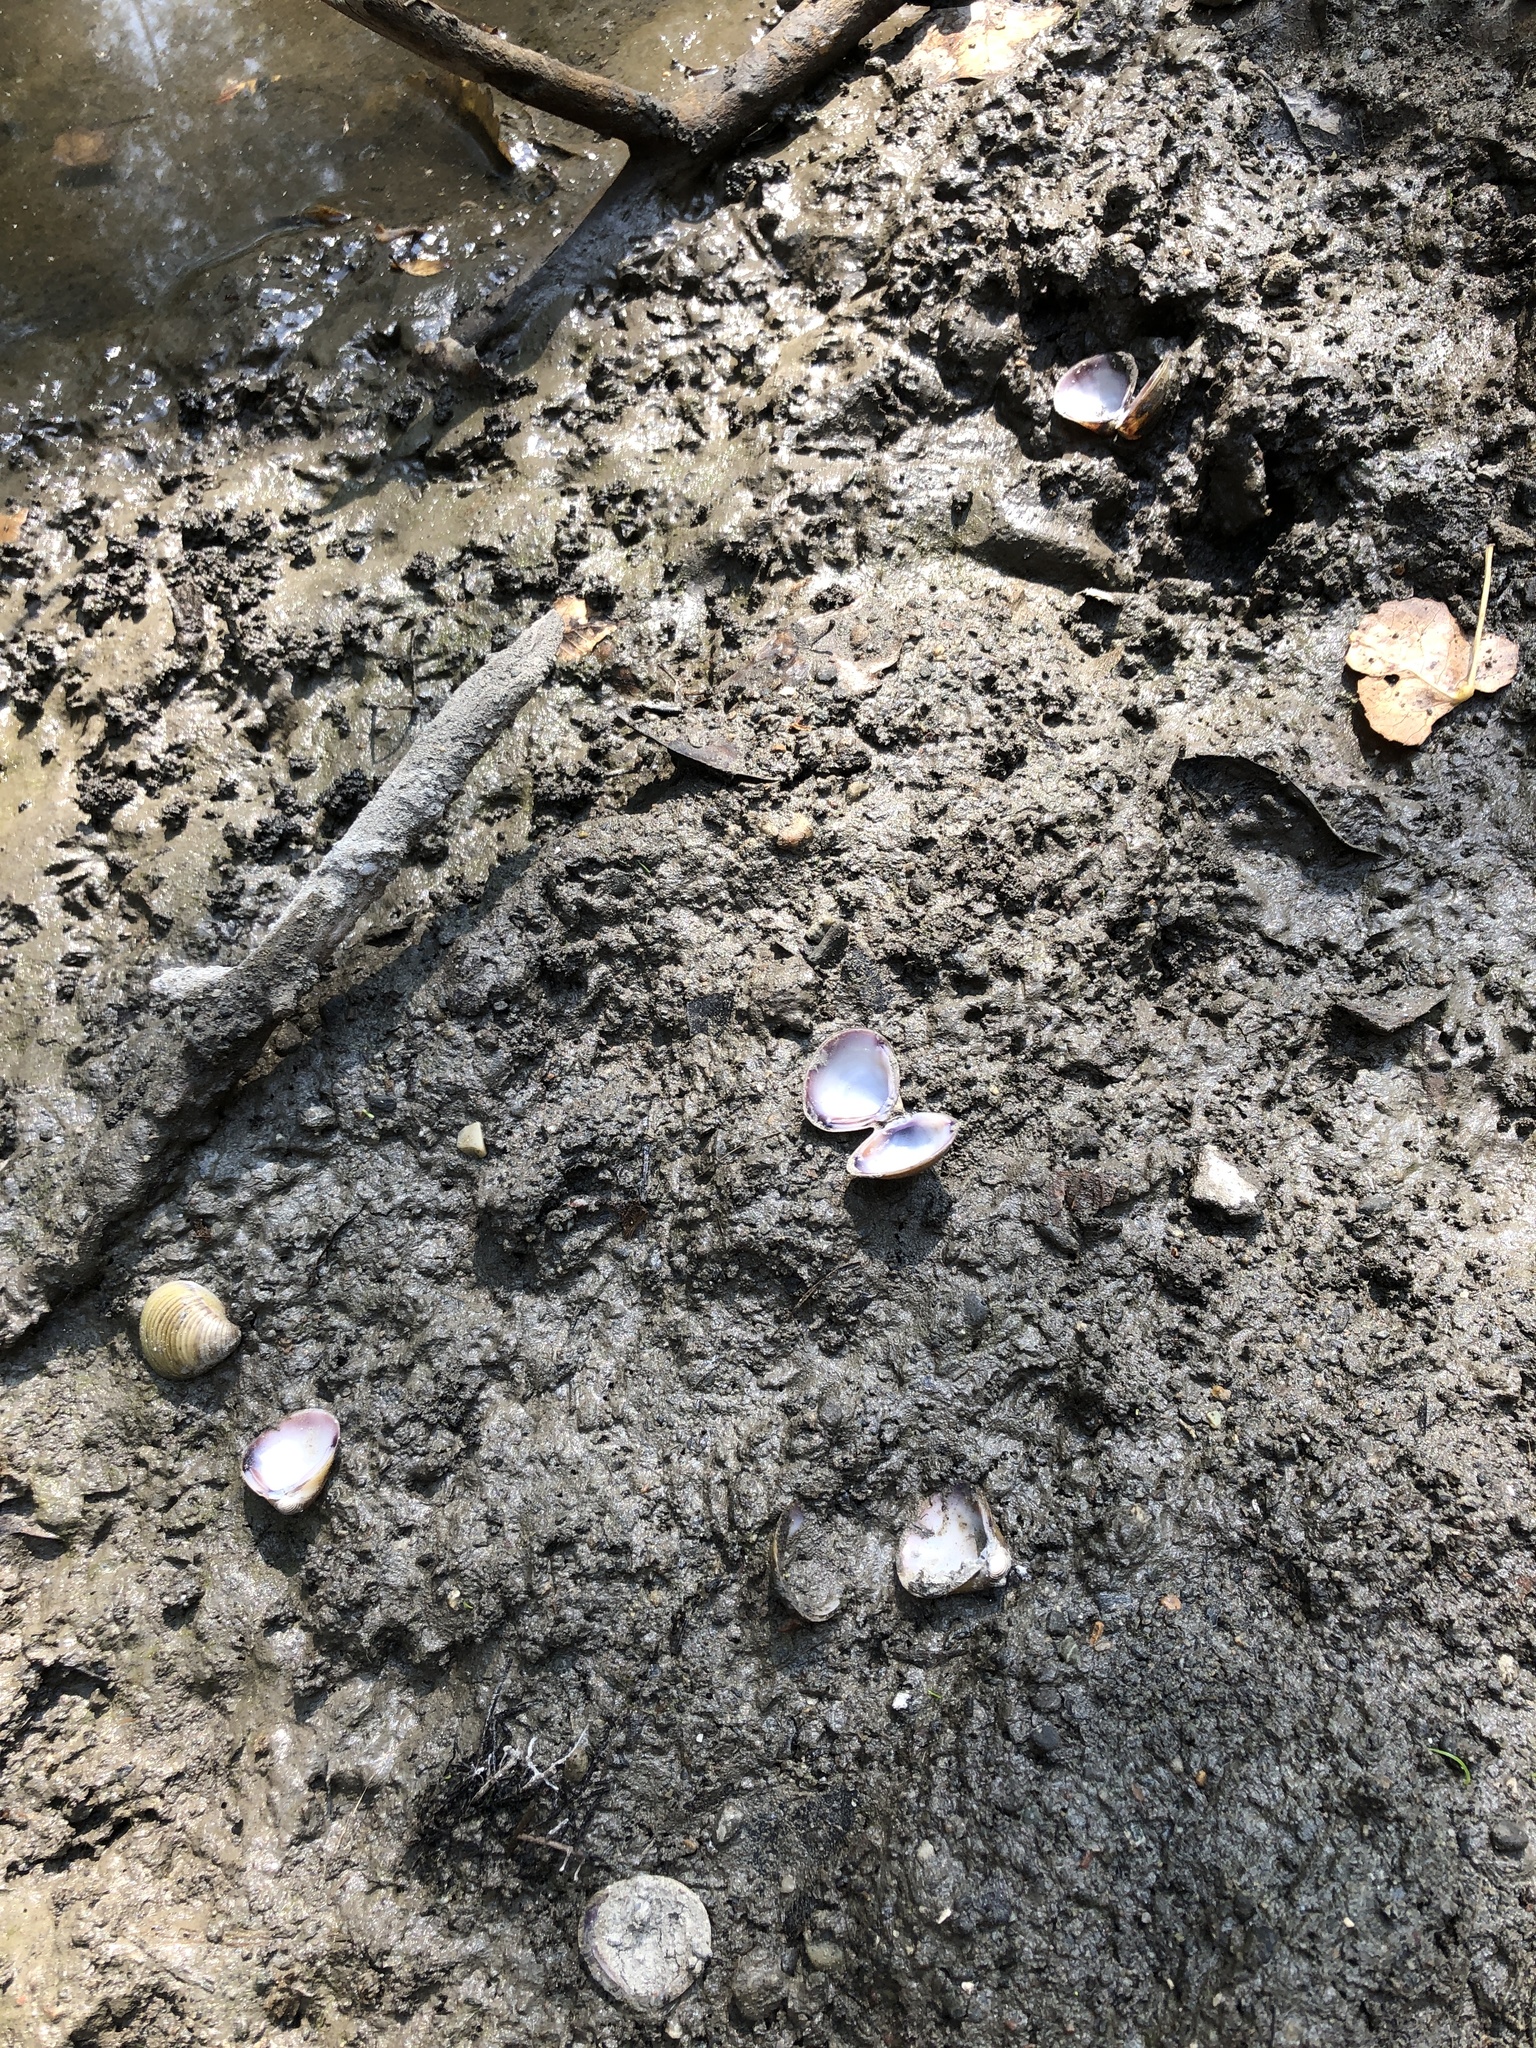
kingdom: Animalia
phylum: Mollusca
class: Bivalvia
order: Venerida
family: Cyrenidae
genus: Corbicula
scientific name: Corbicula fluminea
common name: Asian clam
